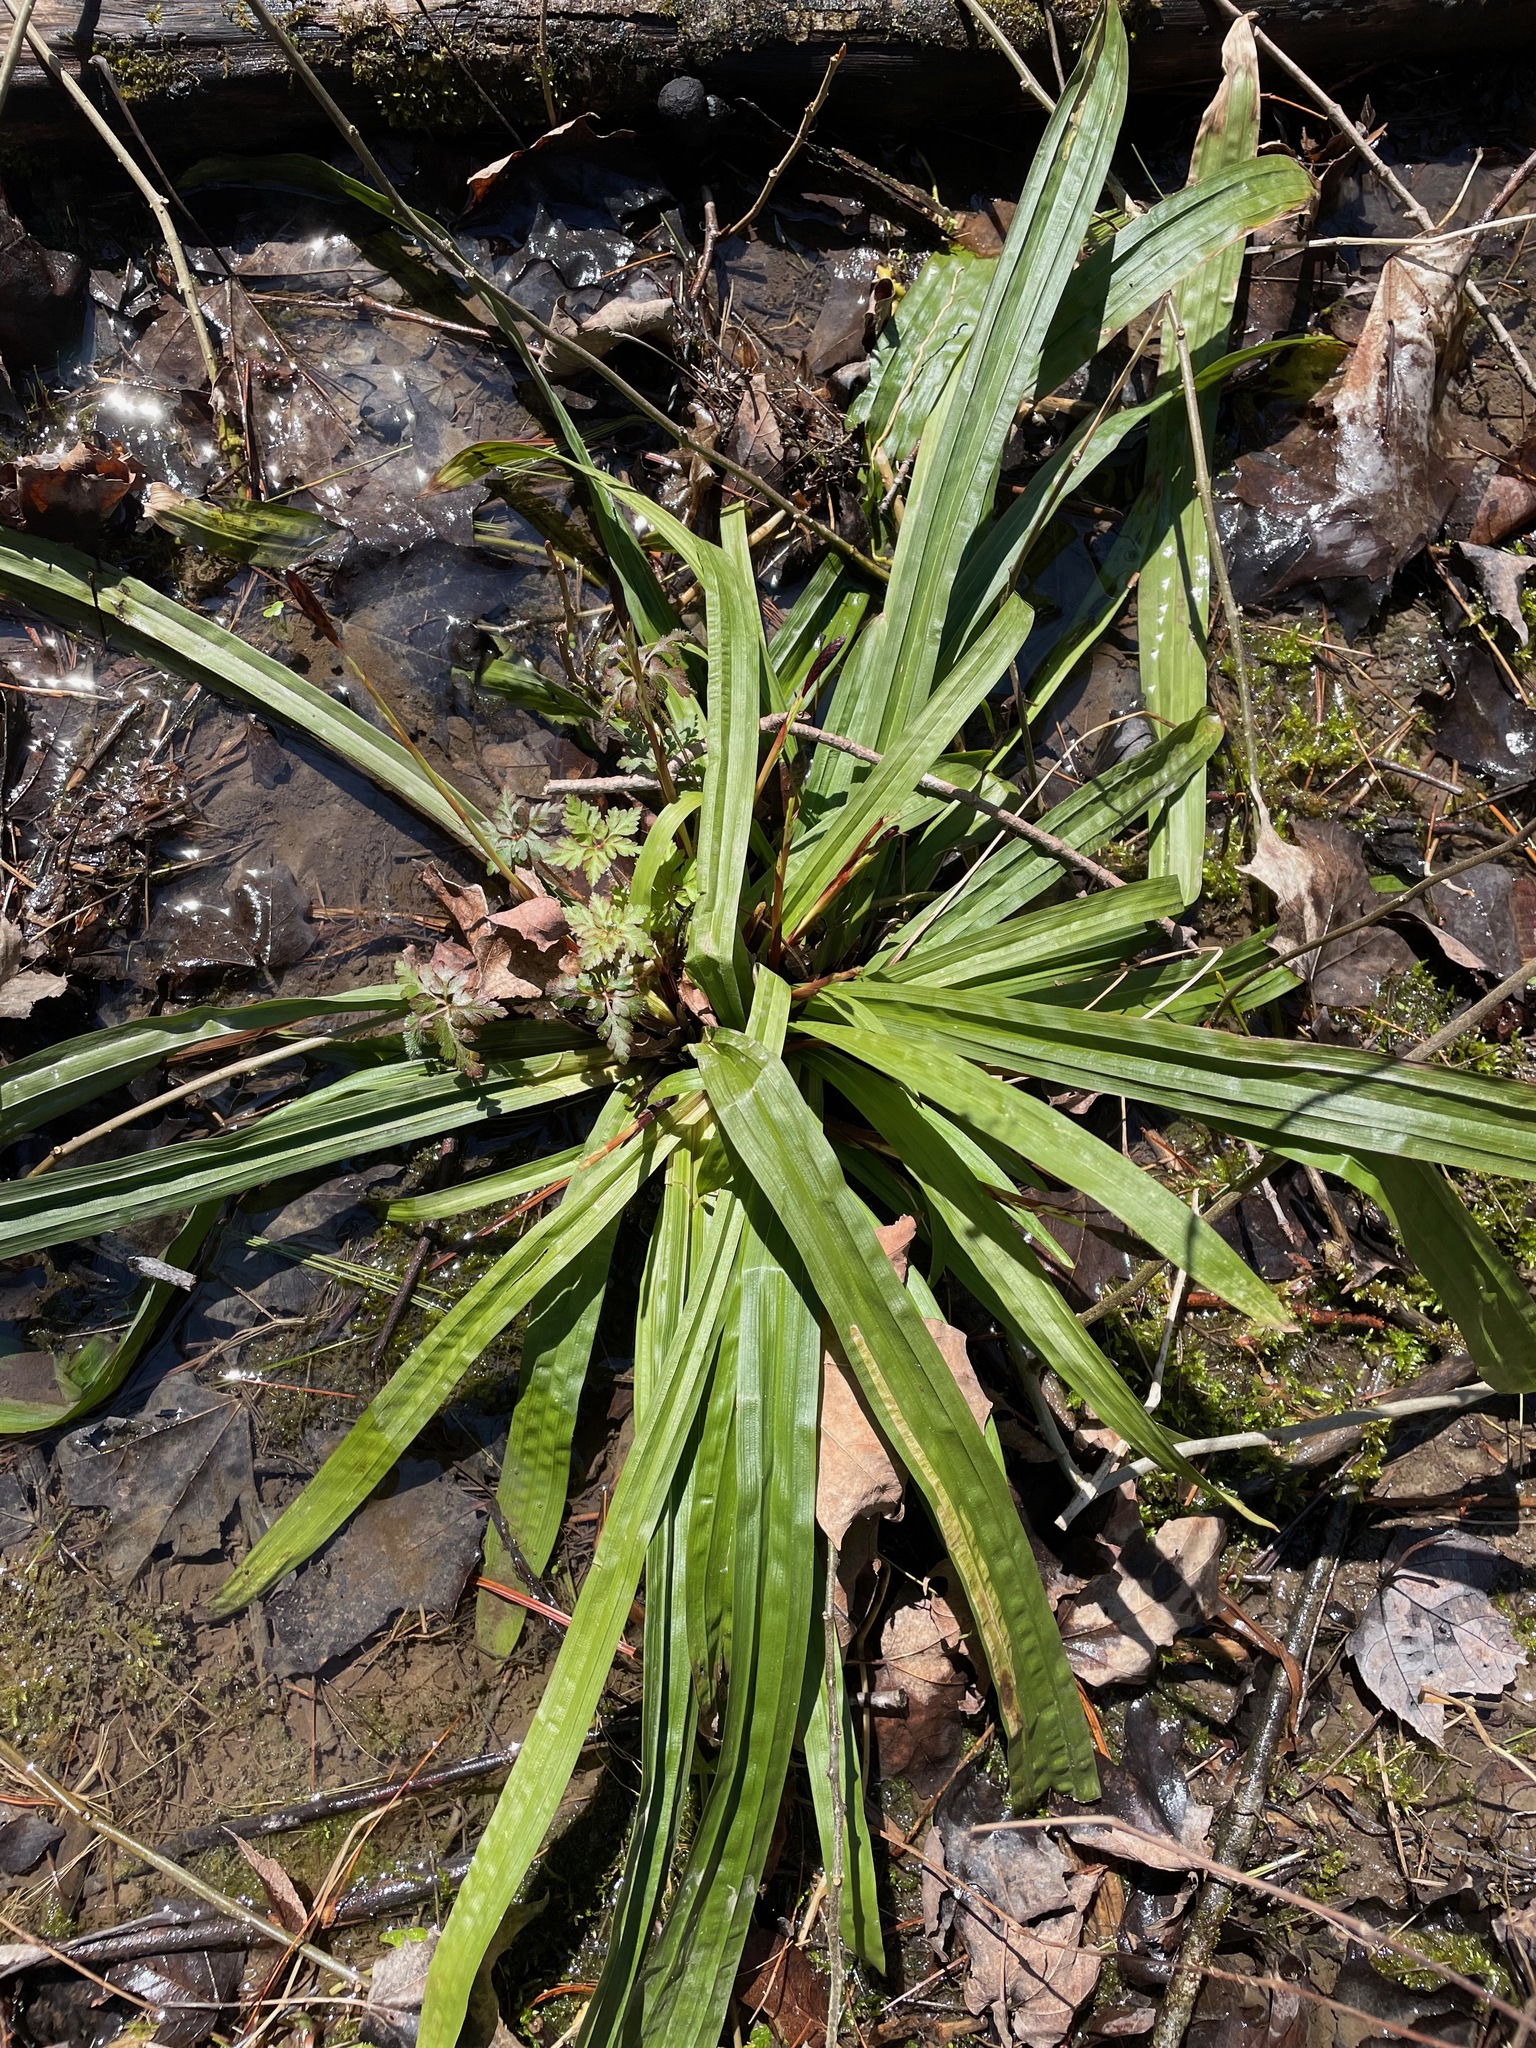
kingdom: Plantae
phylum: Tracheophyta
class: Liliopsida
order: Poales
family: Cyperaceae
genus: Carex
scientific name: Carex plantaginea
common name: Plantain-leaved sedge
